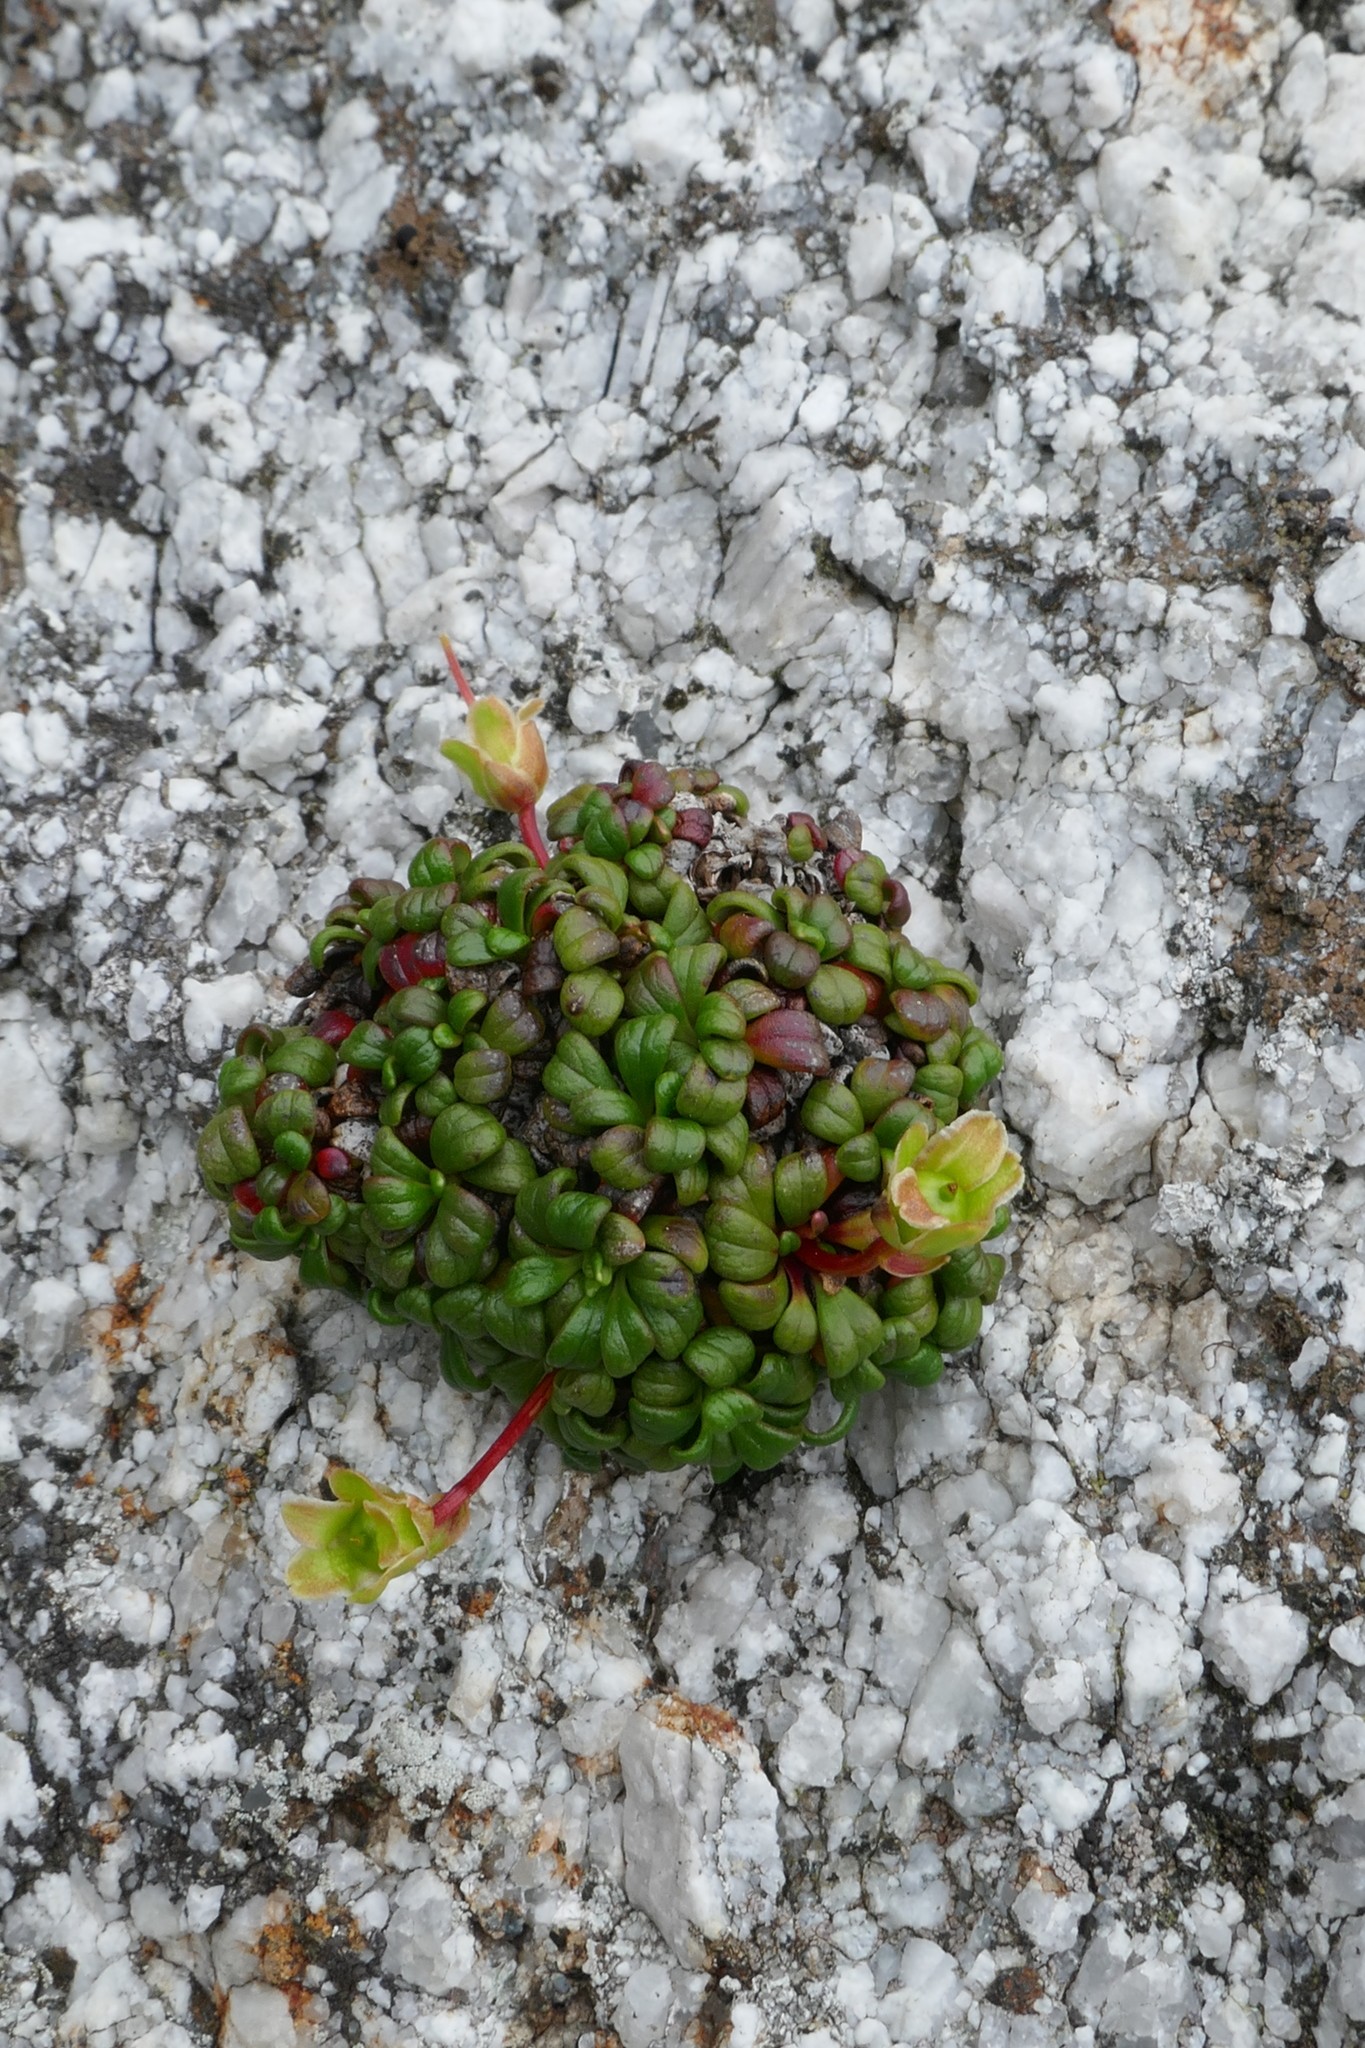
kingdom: Plantae
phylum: Tracheophyta
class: Magnoliopsida
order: Ericales
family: Diapensiaceae
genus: Diapensia
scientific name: Diapensia obovata
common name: Alaska diapensia
